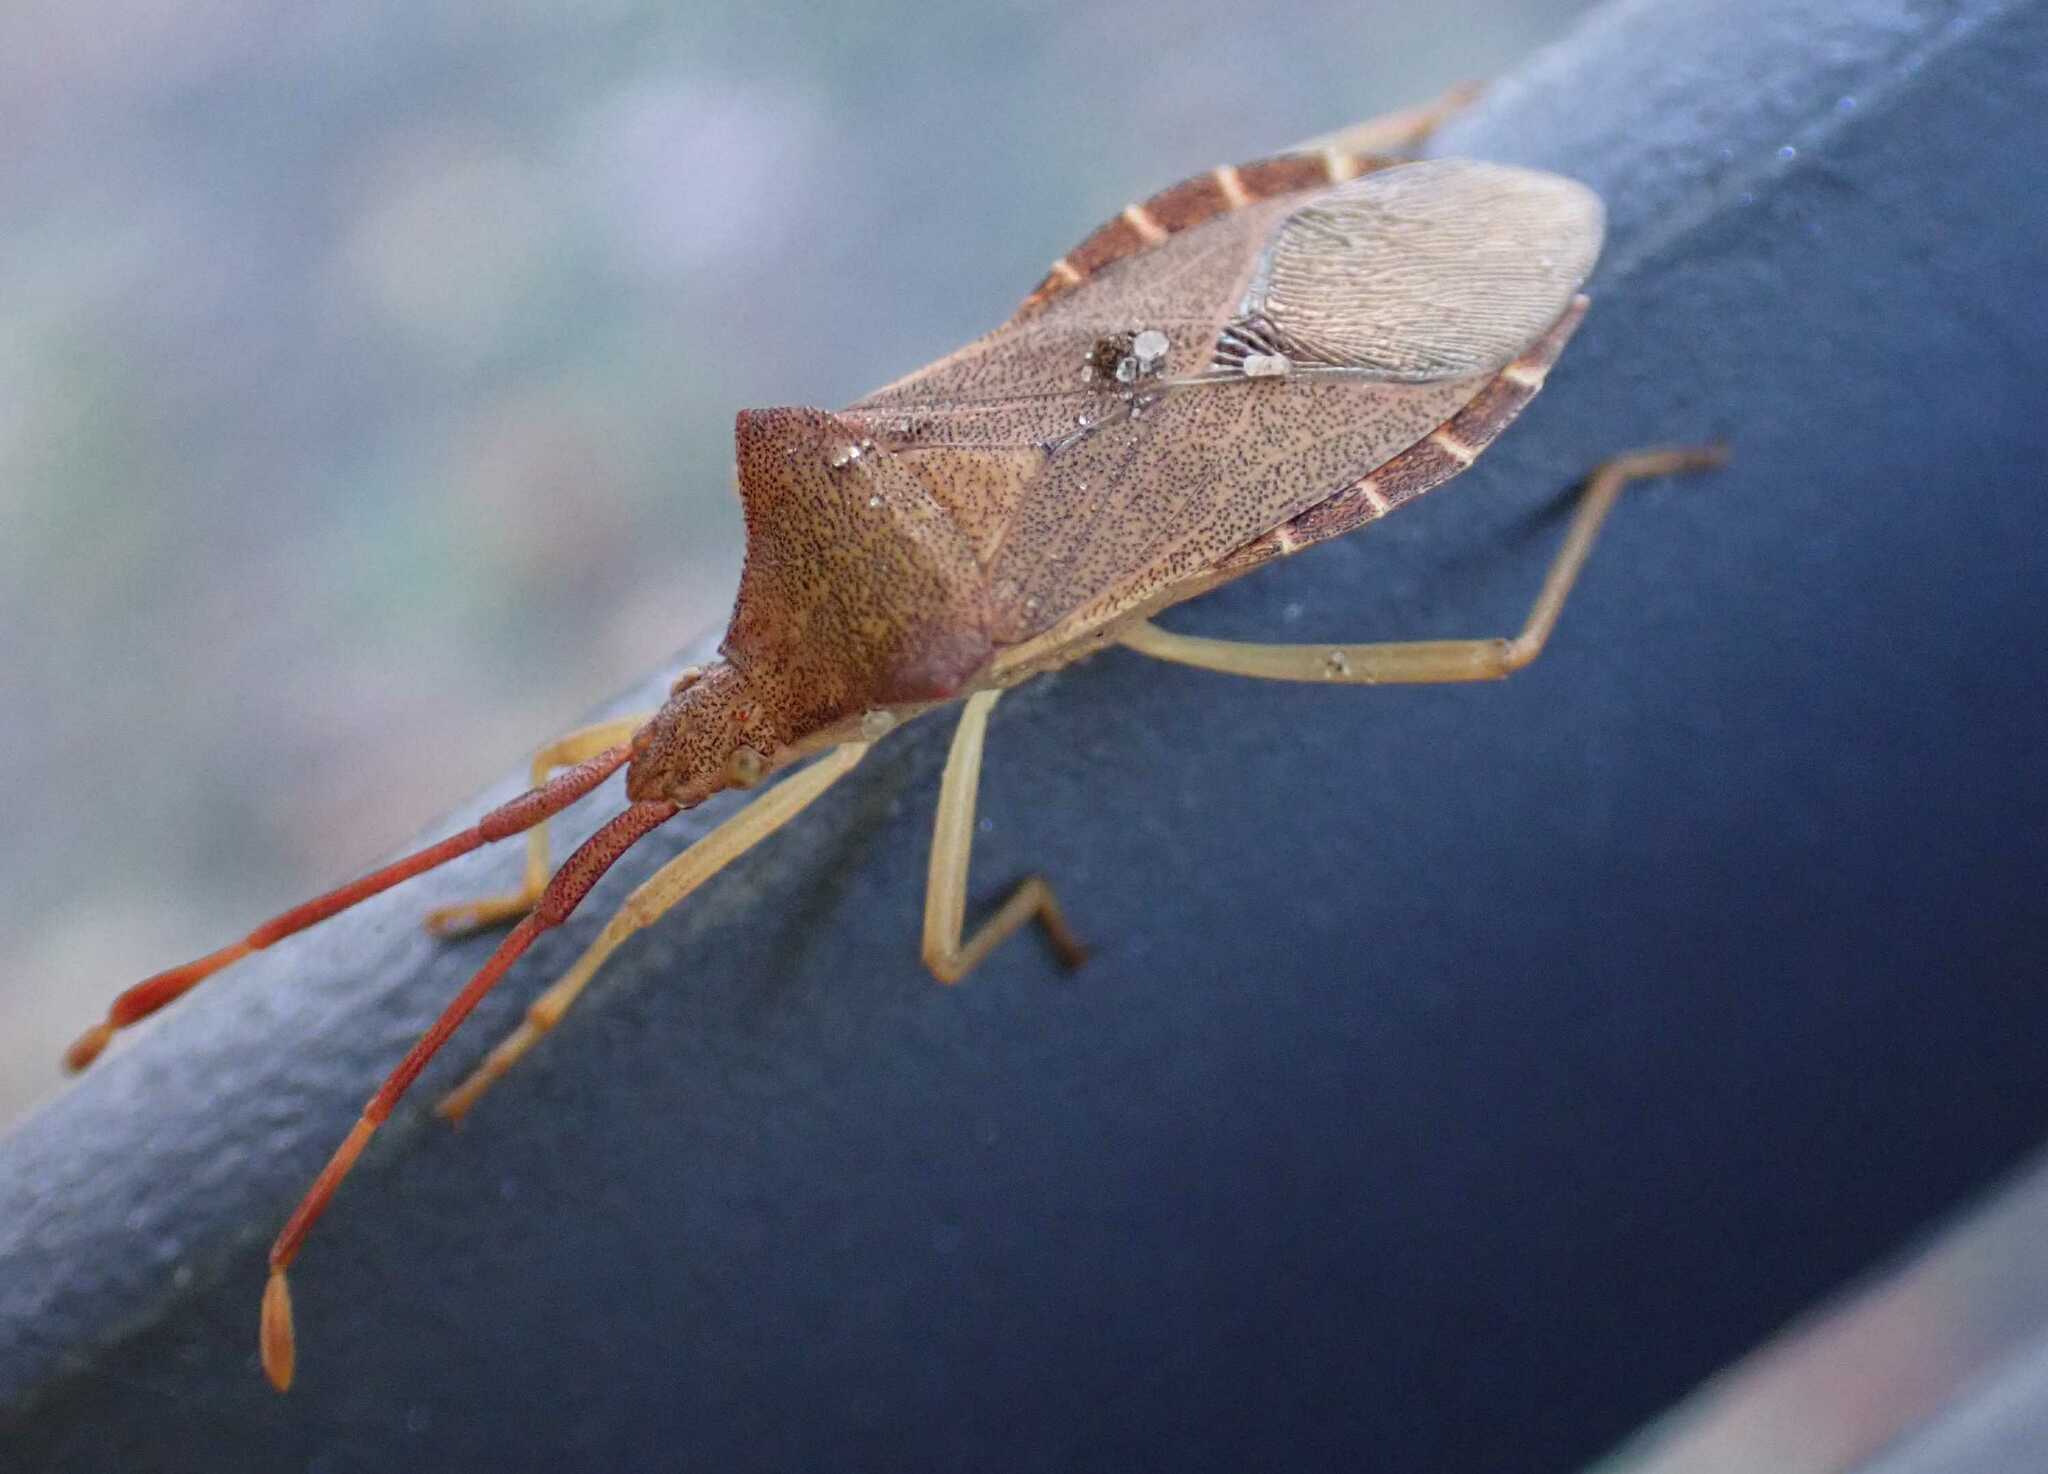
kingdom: Animalia
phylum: Arthropoda
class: Insecta
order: Hemiptera
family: Coreidae
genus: Gonocerus
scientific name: Gonocerus acuteangulatus
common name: Box bug
